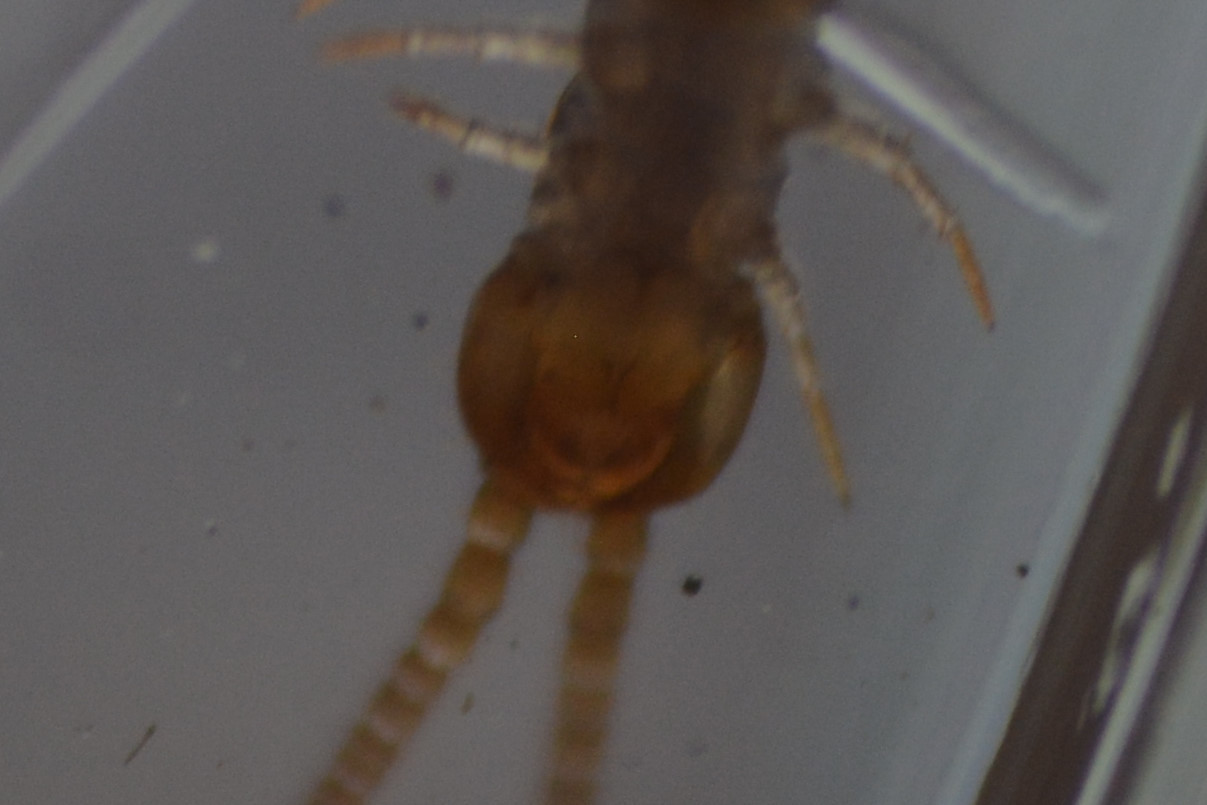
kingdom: Animalia
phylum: Arthropoda
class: Chilopoda
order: Lithobiomorpha
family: Lithobiidae
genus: Lithobius
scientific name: Lithobius melanops
